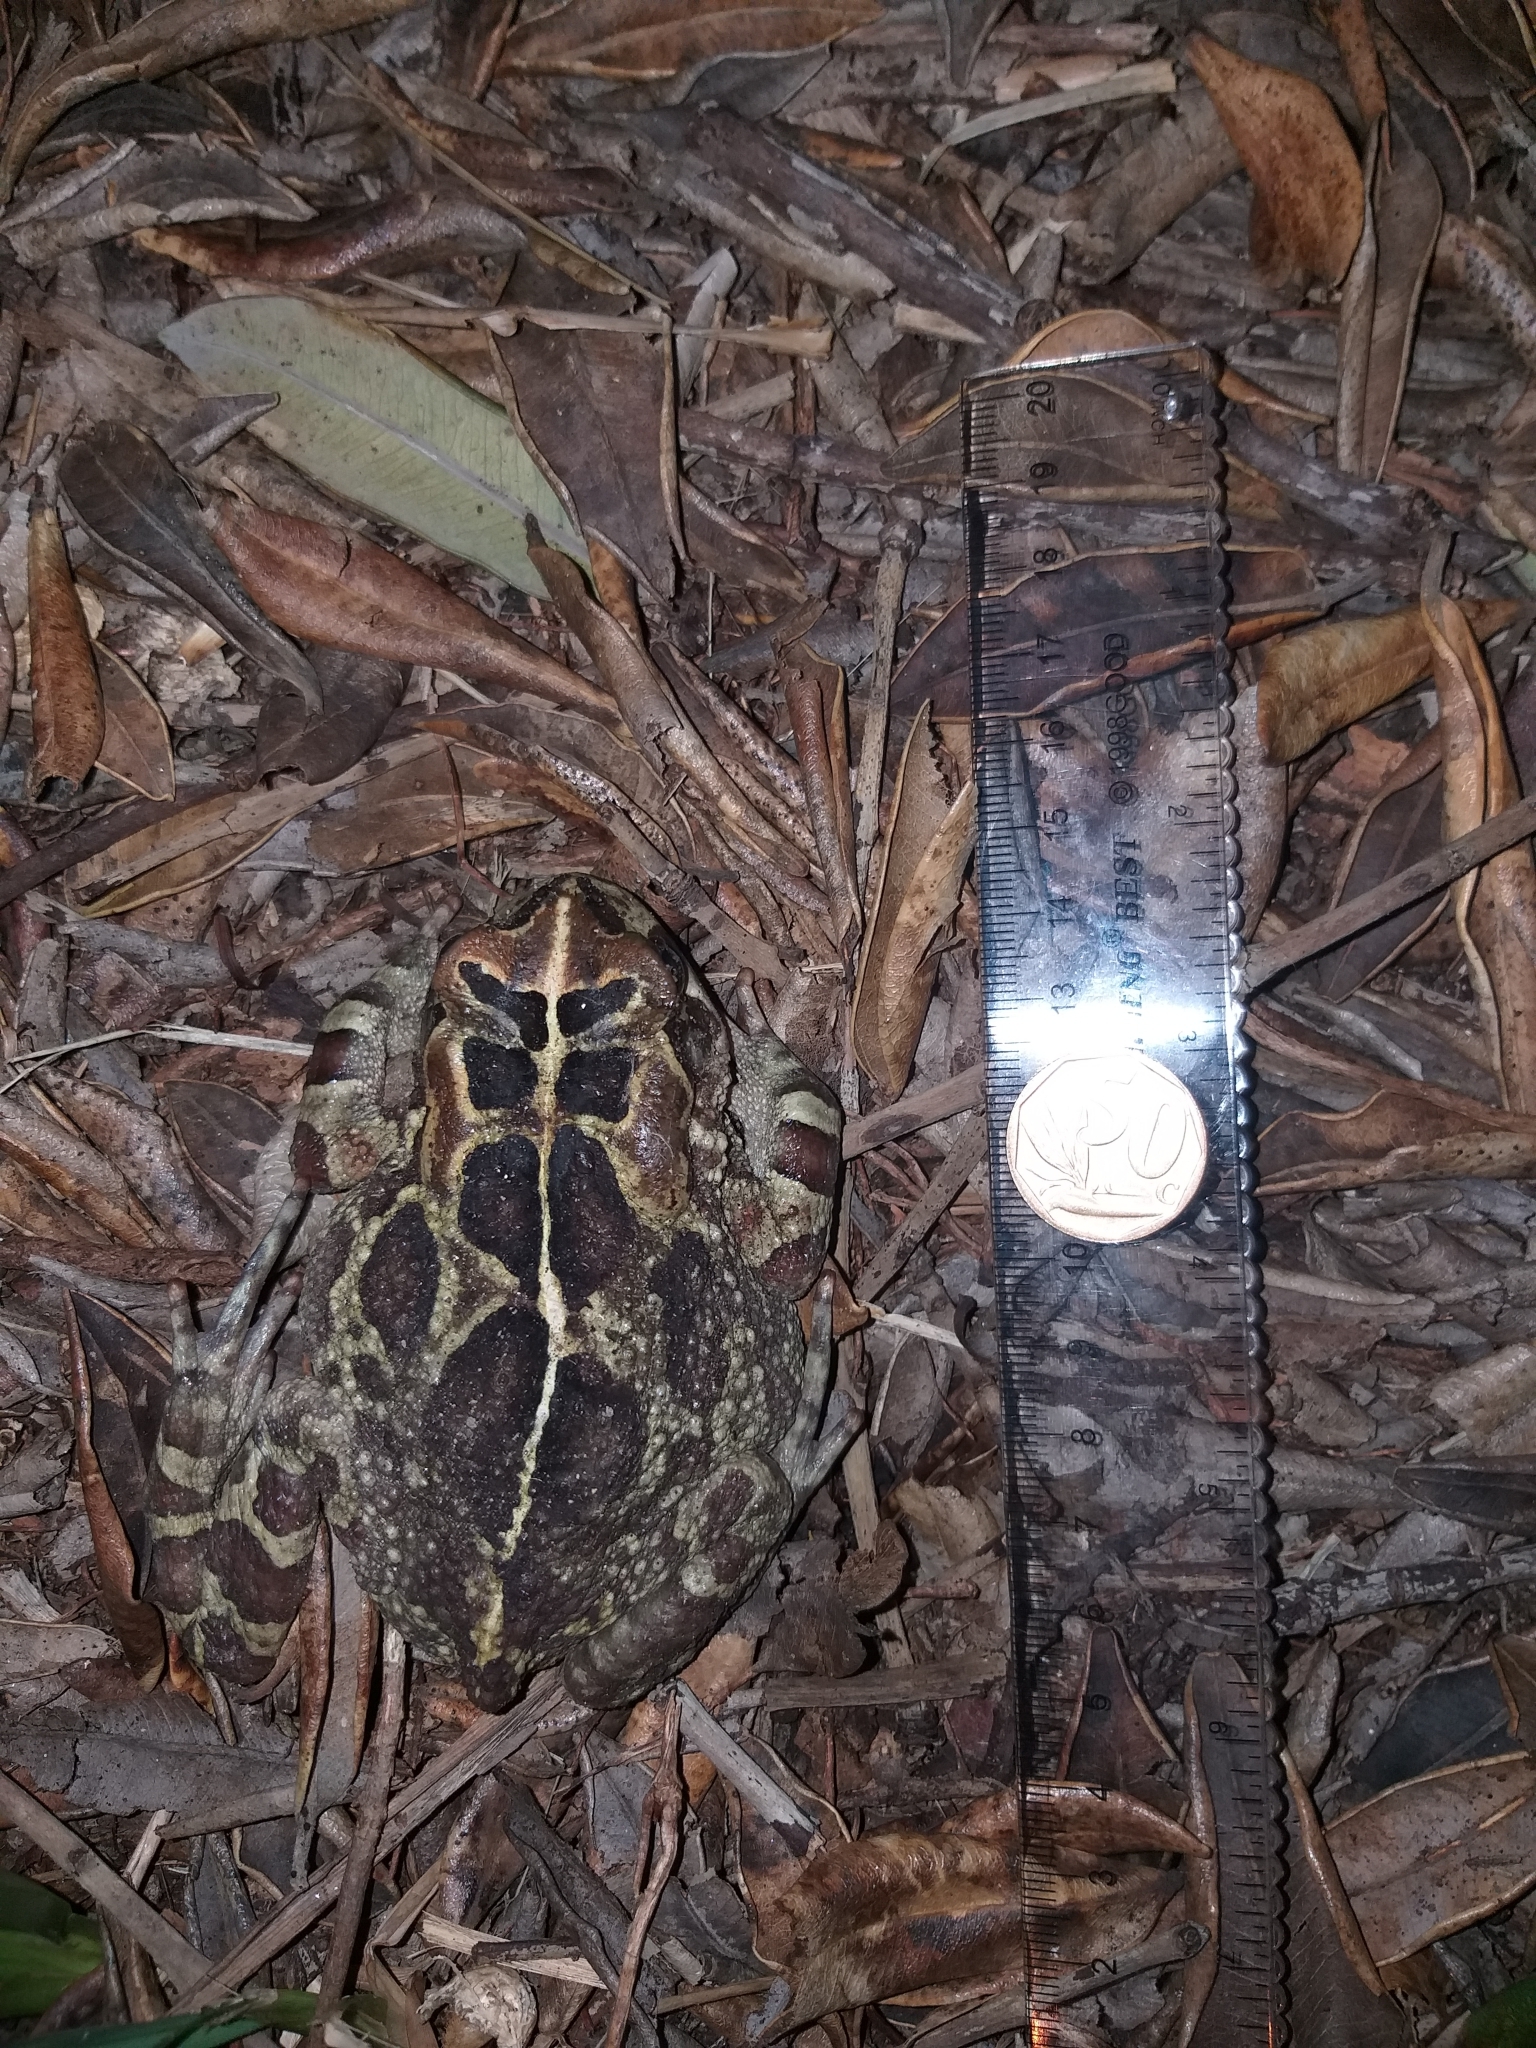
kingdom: Animalia
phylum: Chordata
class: Amphibia
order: Anura
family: Bufonidae
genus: Sclerophrys
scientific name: Sclerophrys pantherina
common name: Panther toad
